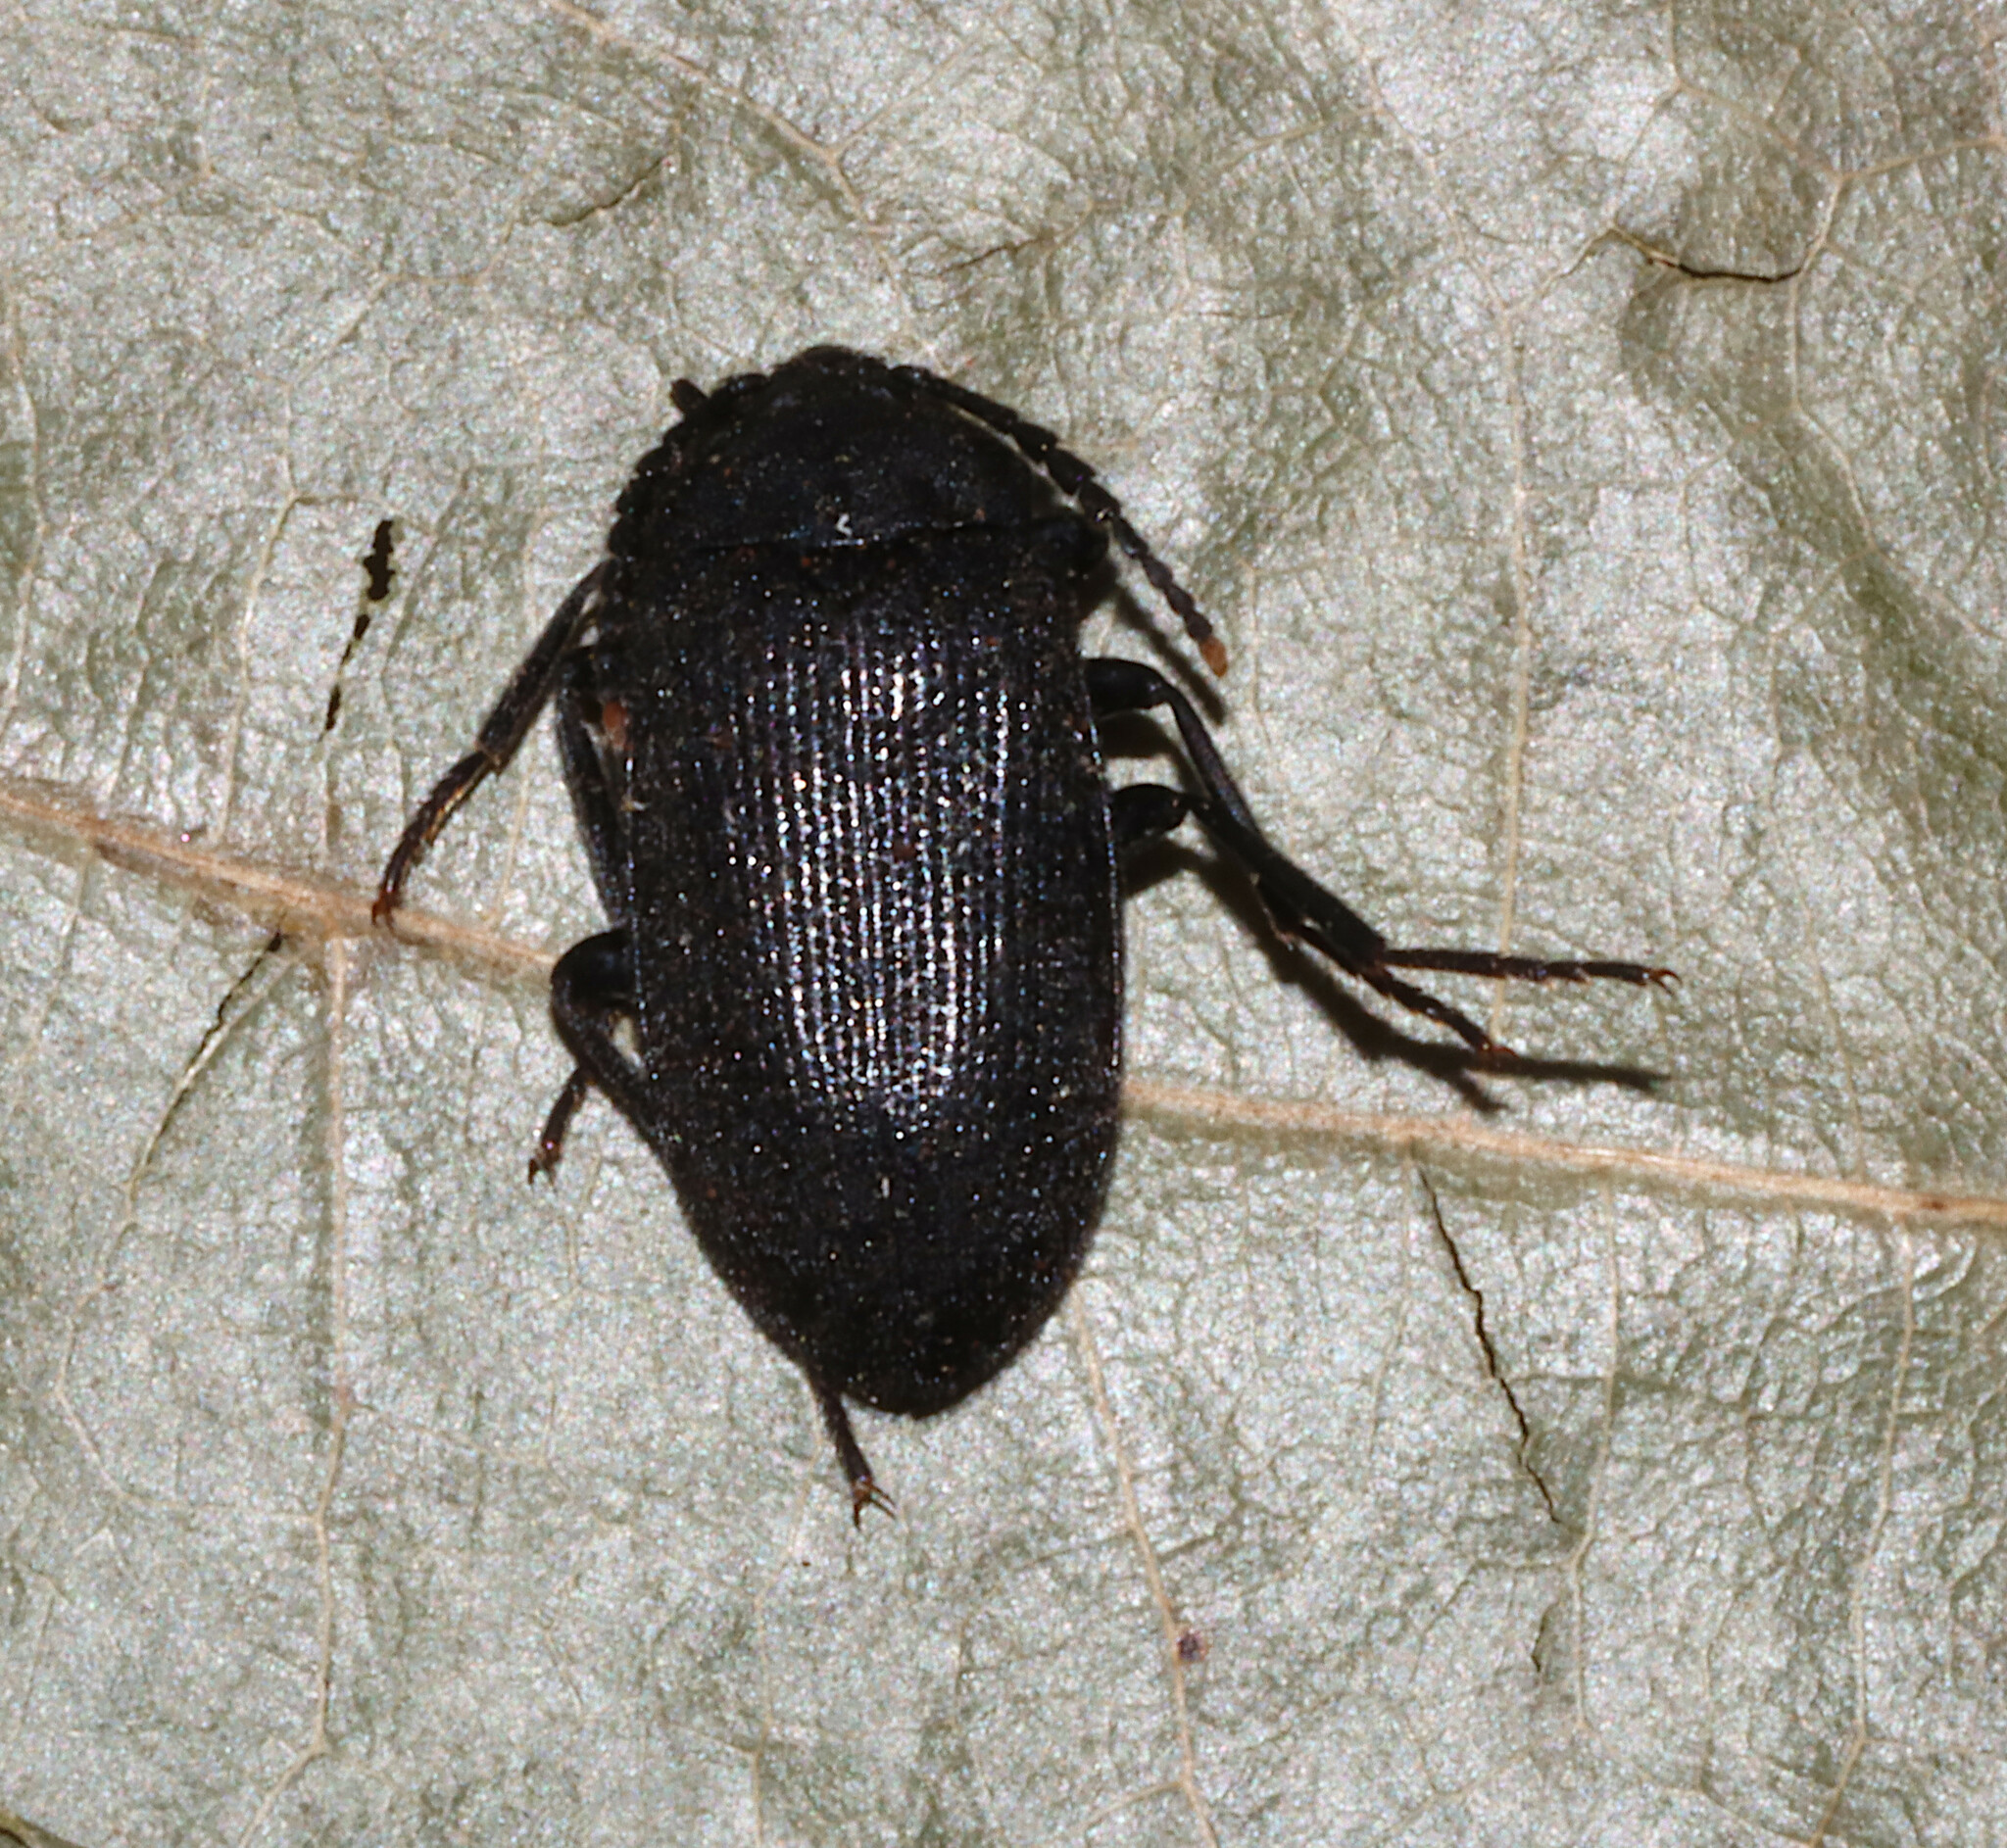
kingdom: Animalia
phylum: Arthropoda
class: Insecta
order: Coleoptera
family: Tetratomidae
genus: Penthe
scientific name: Penthe pimelia
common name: Velvety bark beetle
